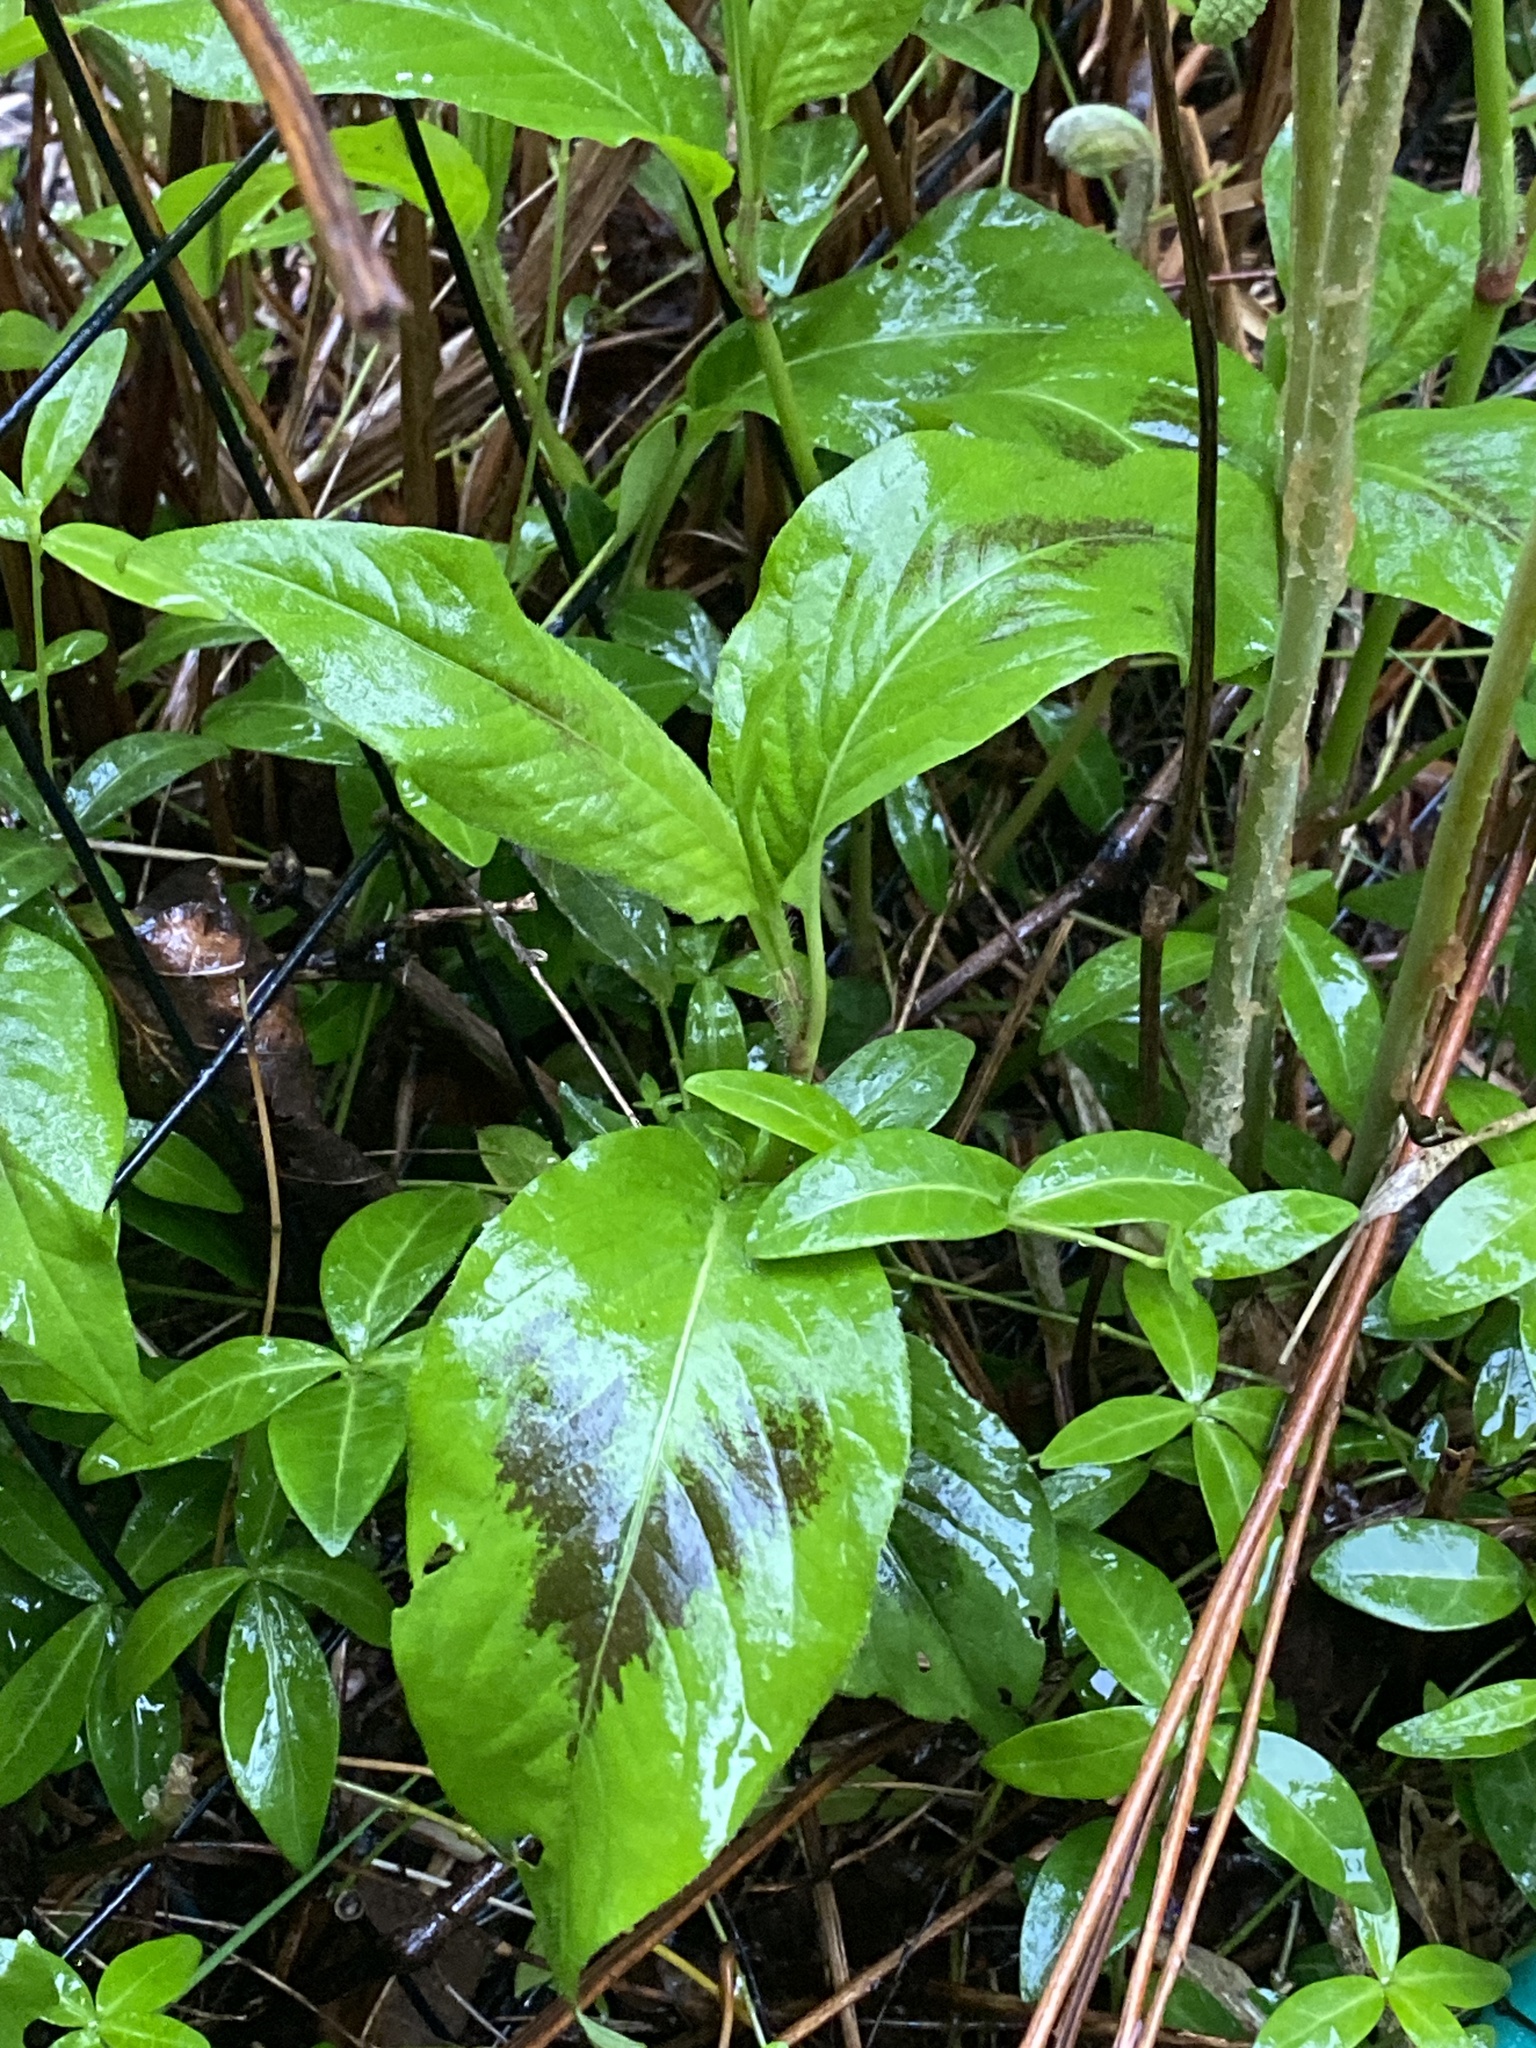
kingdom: Plantae
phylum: Tracheophyta
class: Magnoliopsida
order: Caryophyllales
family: Polygonaceae
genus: Persicaria
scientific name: Persicaria virginiana
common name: Jumpseed
